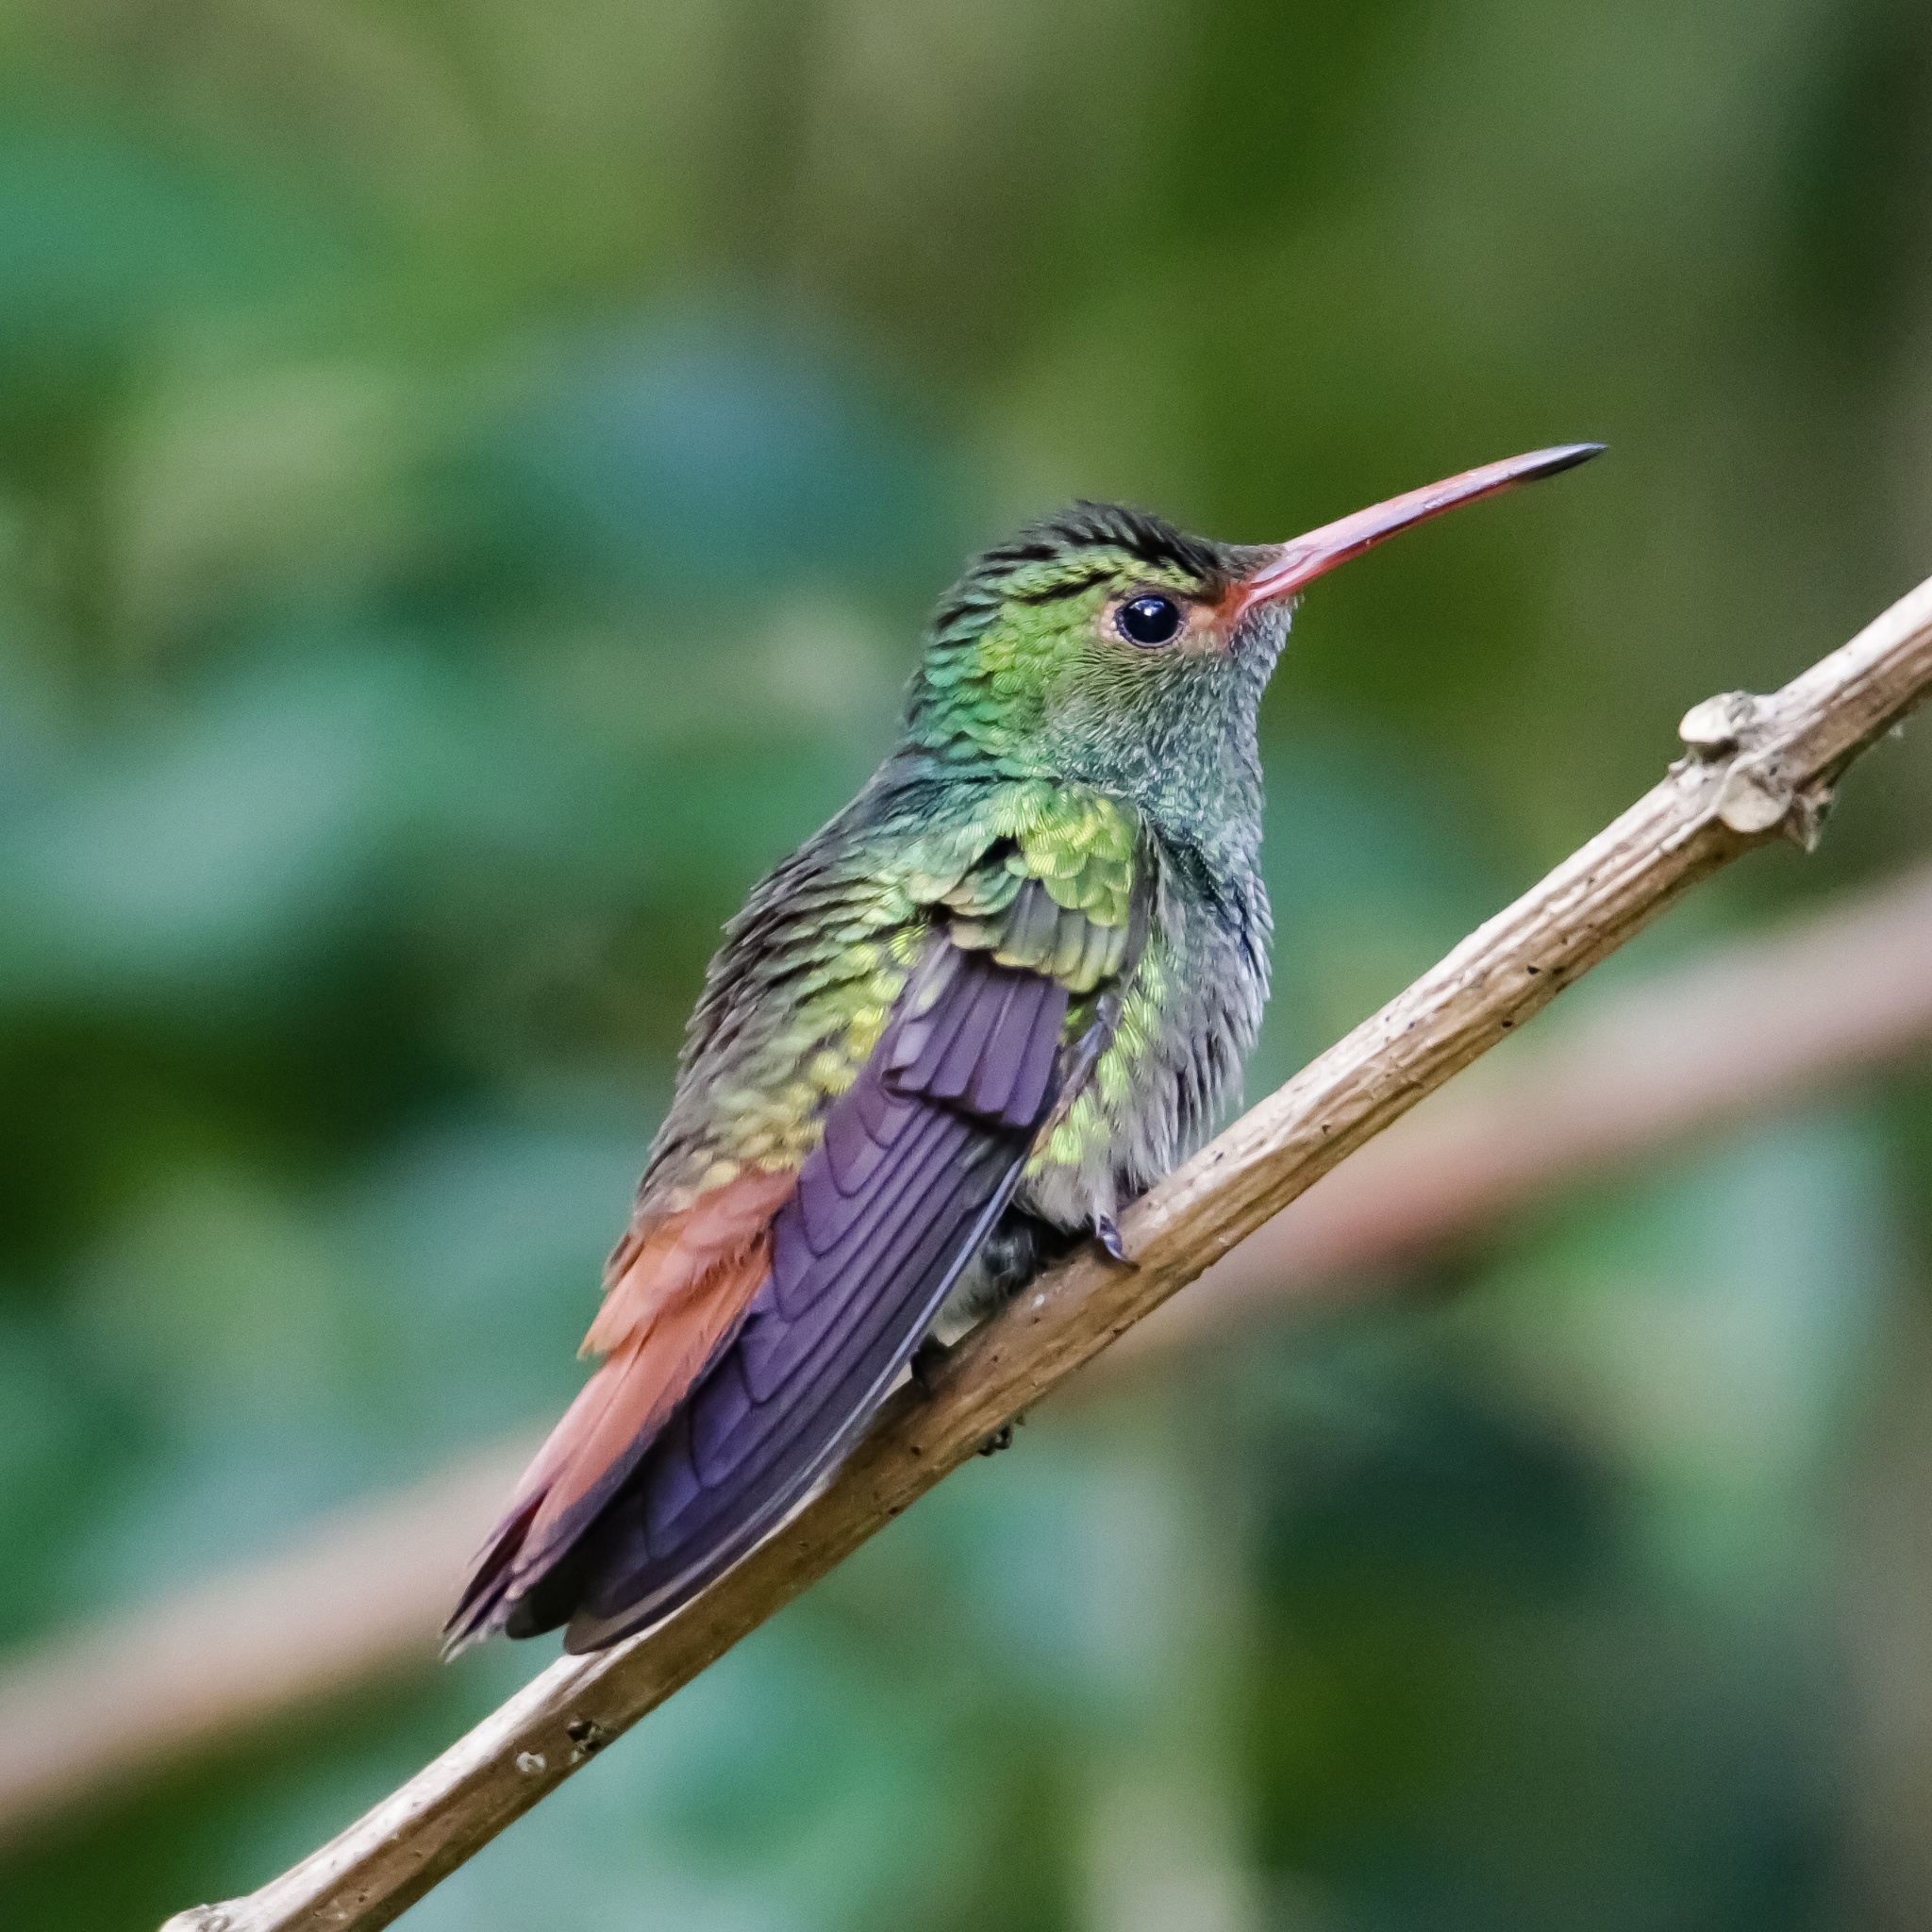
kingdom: Animalia
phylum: Chordata
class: Aves
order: Apodiformes
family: Trochilidae
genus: Amazilia
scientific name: Amazilia tzacatl
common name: Rufous-tailed hummingbird
